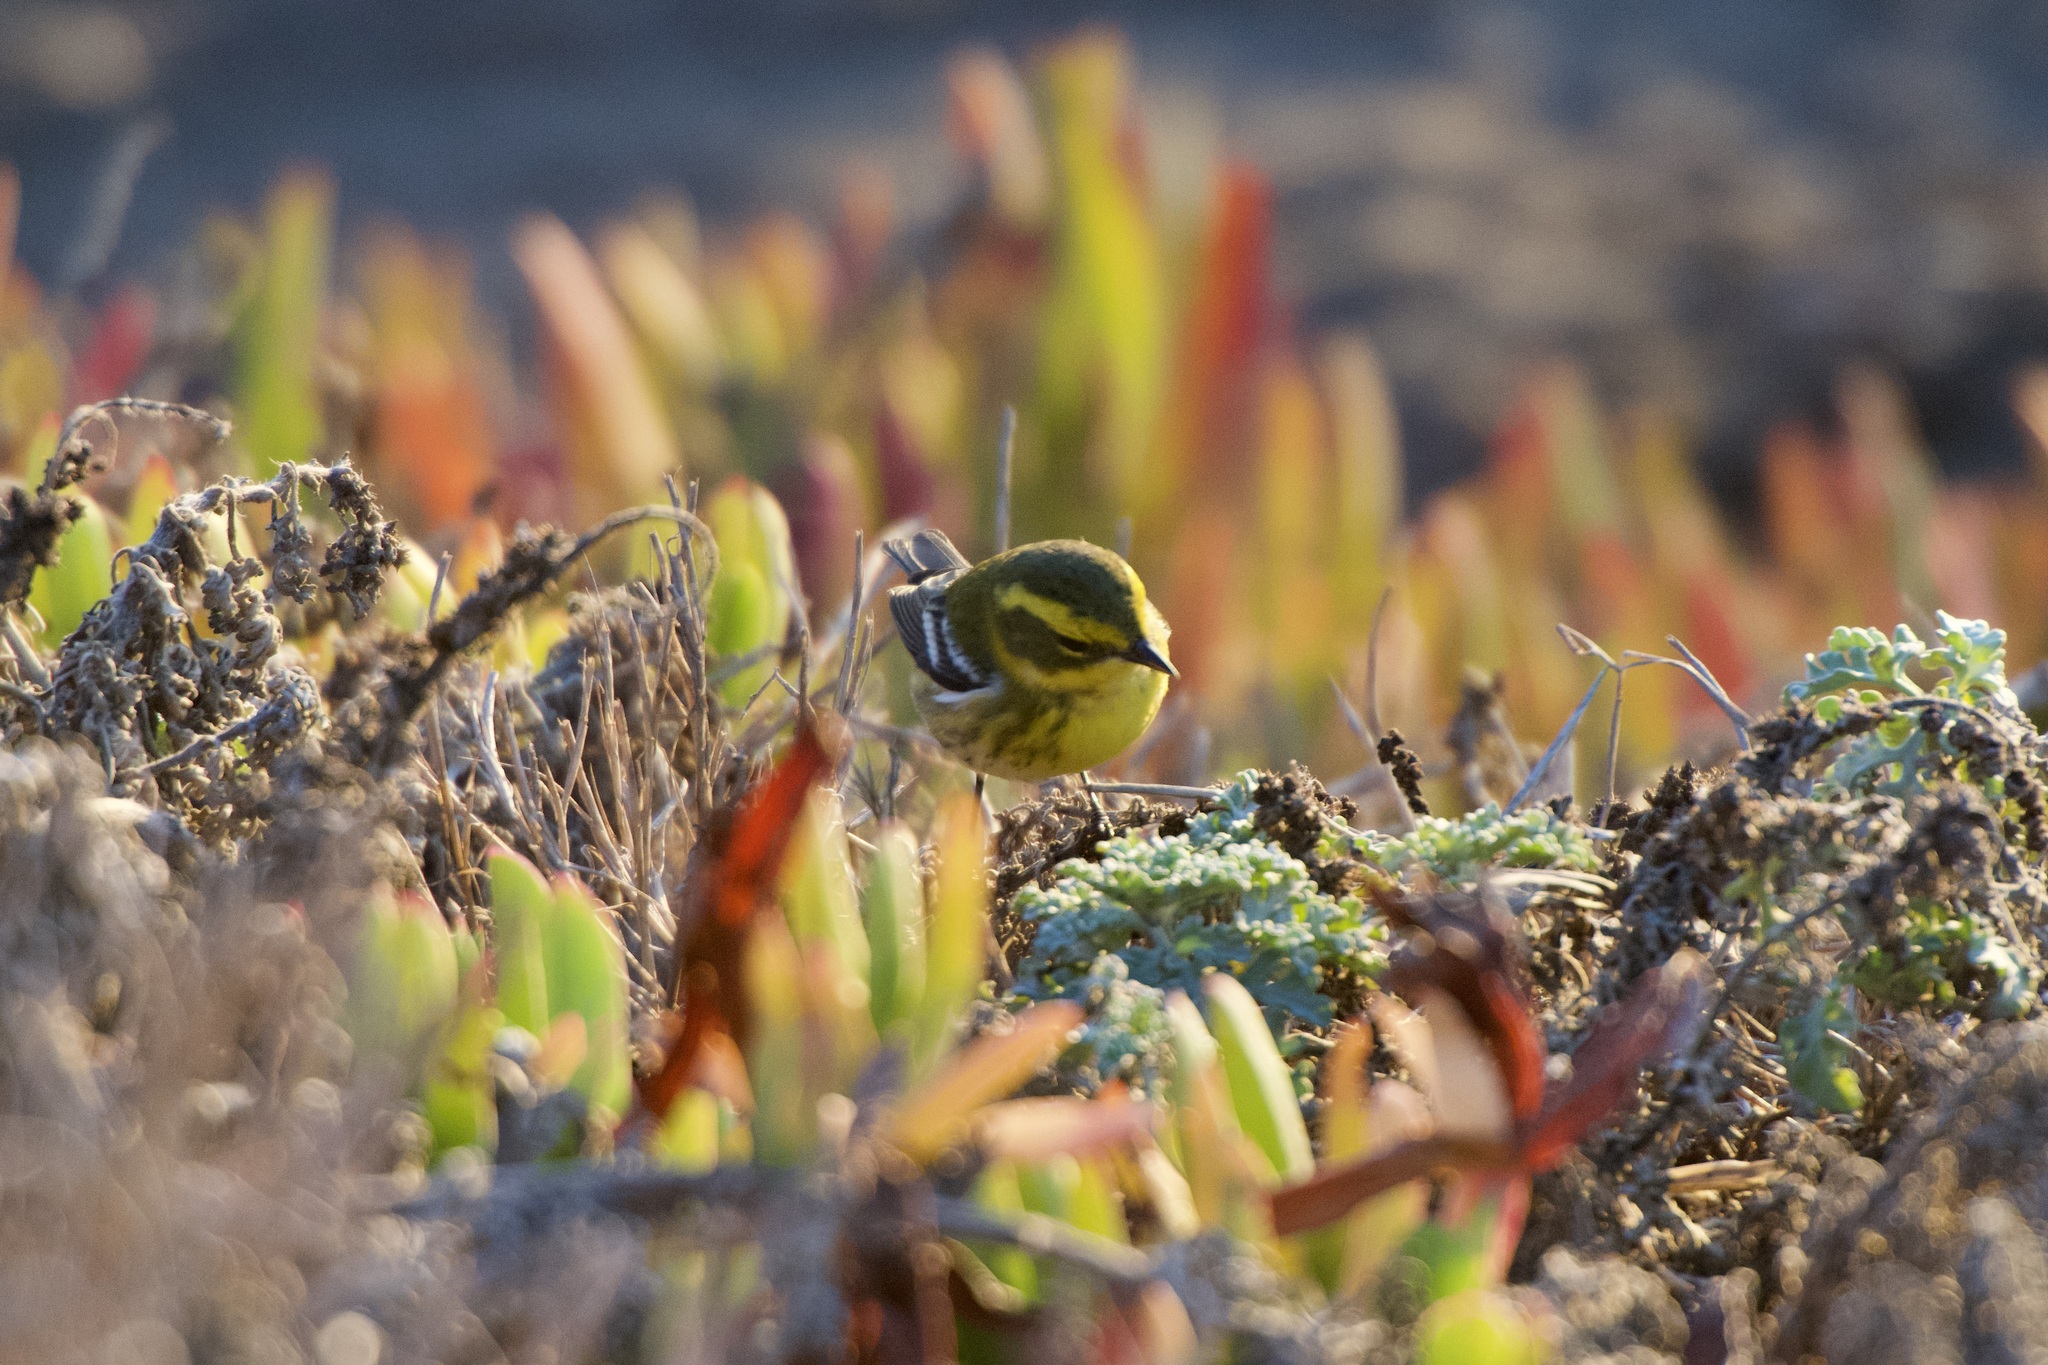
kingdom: Animalia
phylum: Chordata
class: Aves
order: Passeriformes
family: Parulidae
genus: Setophaga
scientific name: Setophaga townsendi
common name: Townsend's warbler
